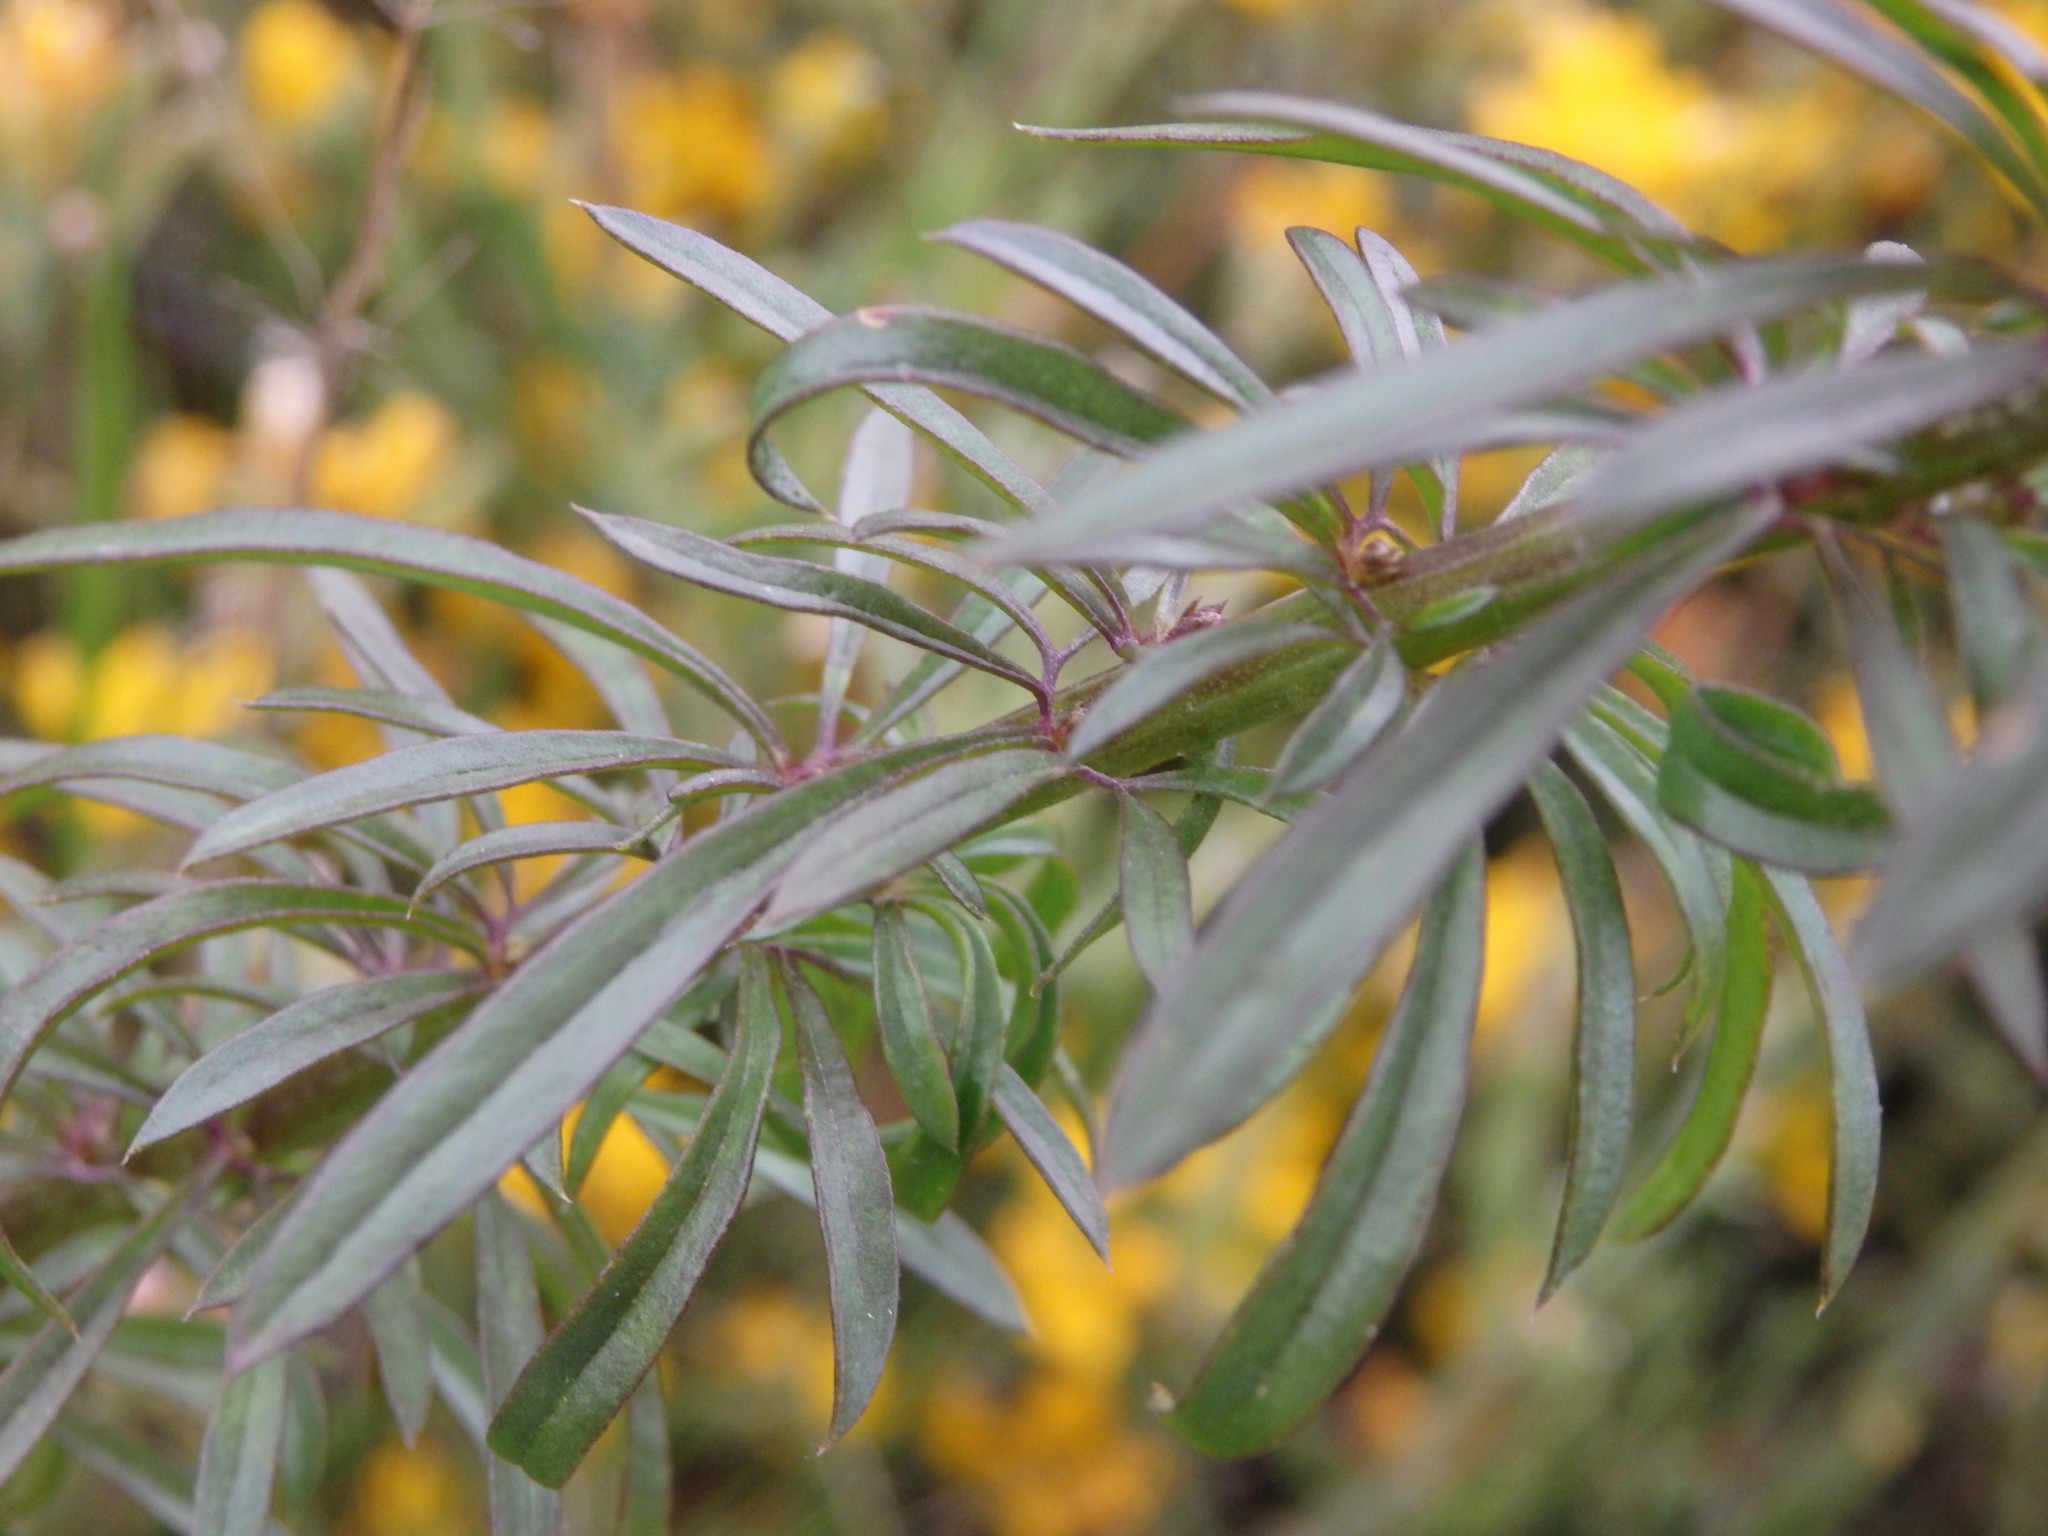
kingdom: Plantae
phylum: Tracheophyta
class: Magnoliopsida
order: Lamiales
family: Plantaginaceae
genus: Anarrhinum
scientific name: Anarrhinum longipedicellatum
